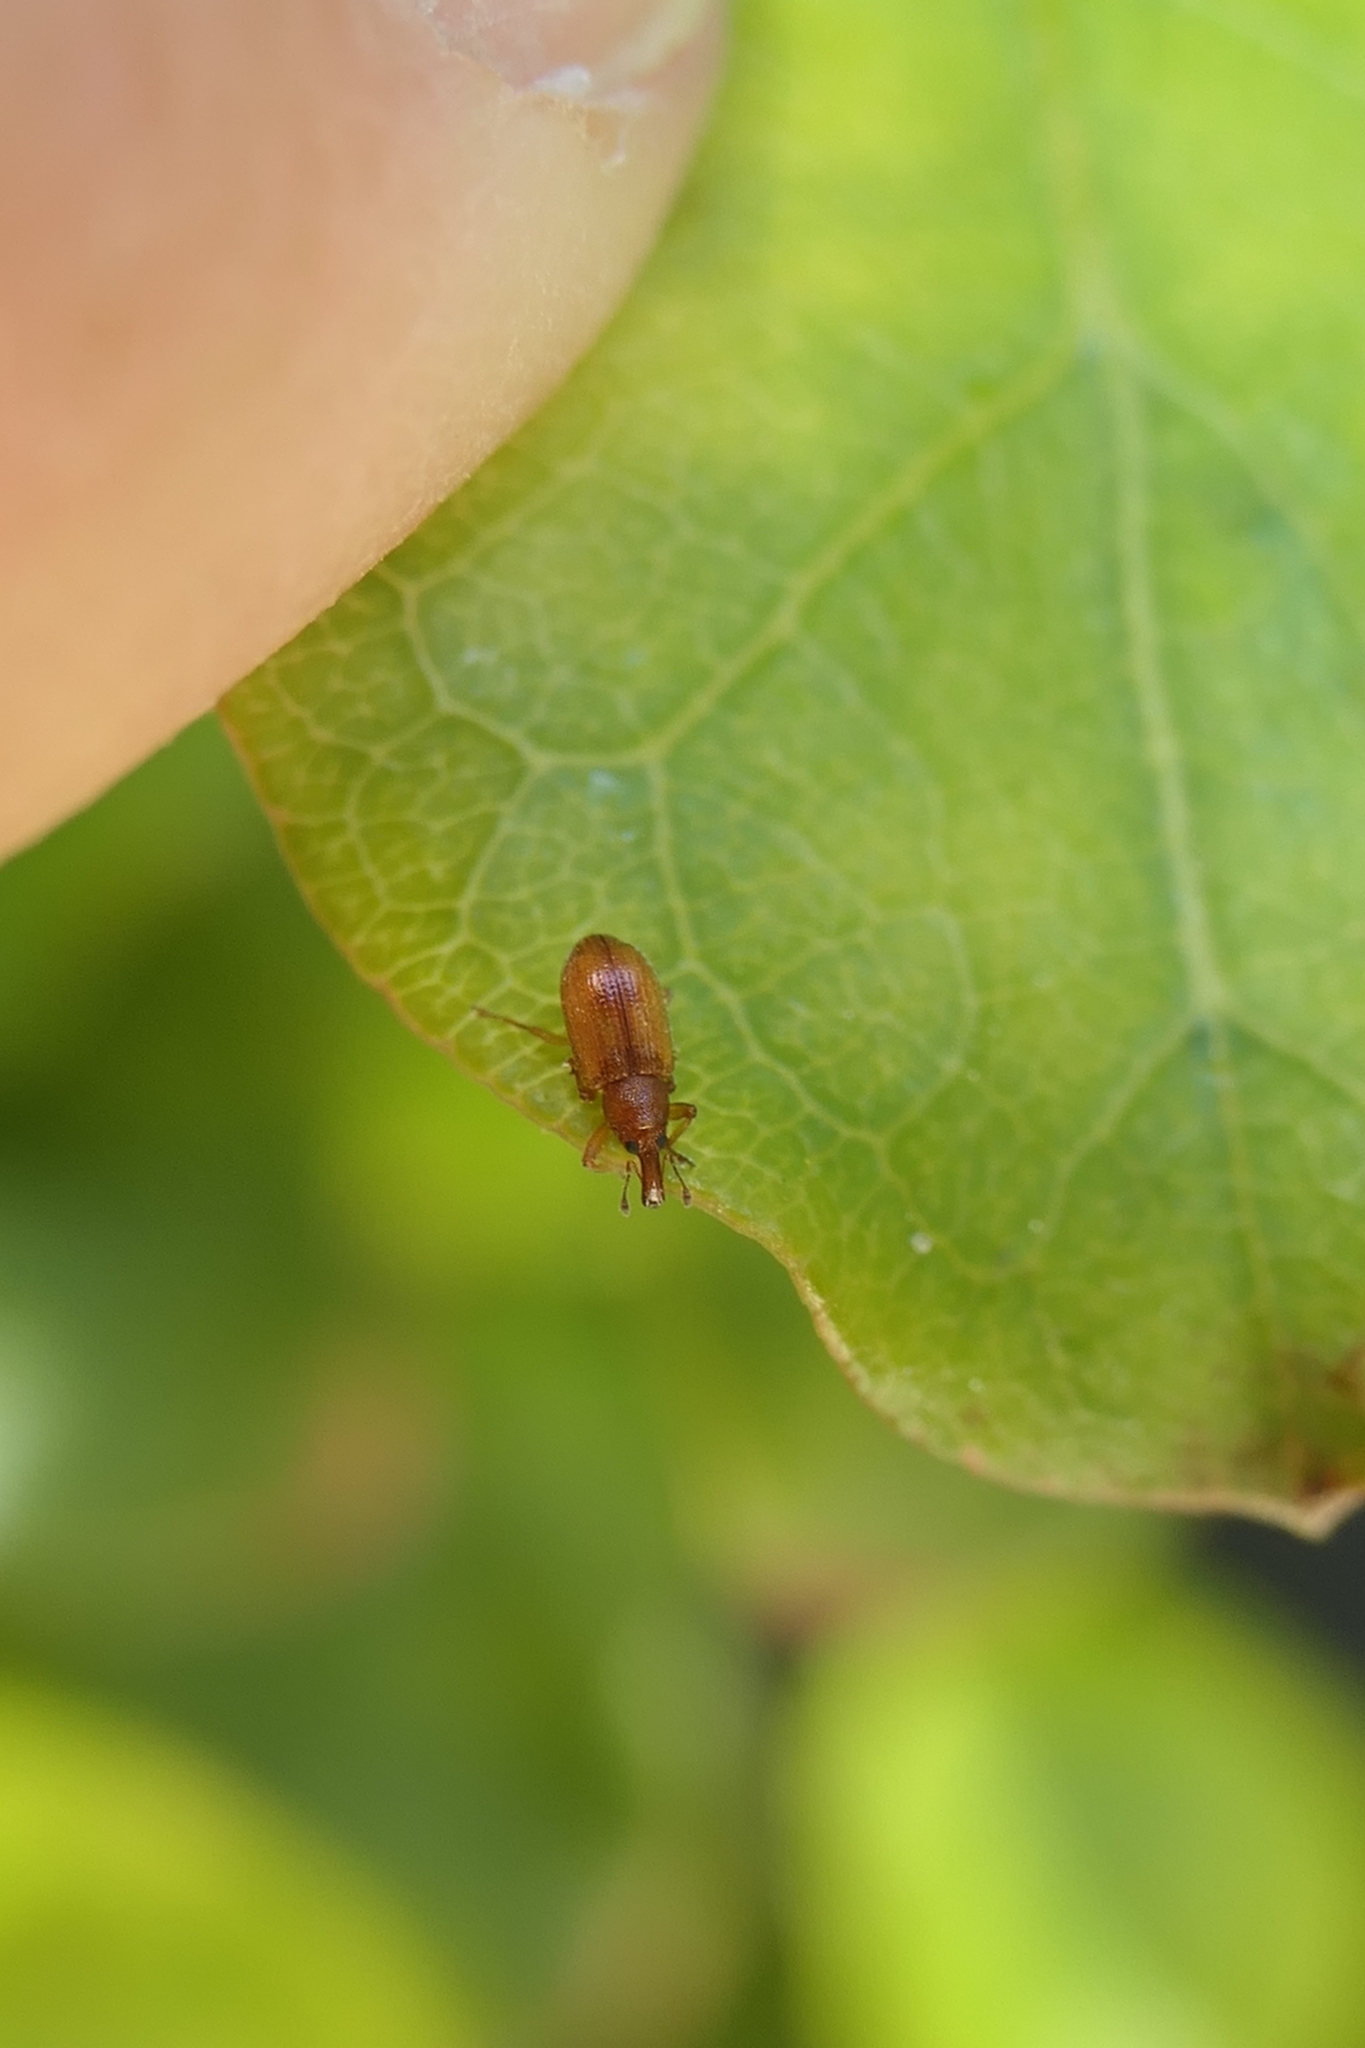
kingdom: Animalia
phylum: Arthropoda
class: Insecta
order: Coleoptera
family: Curculionidae
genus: Neomycta
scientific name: Neomycta pulicaris
